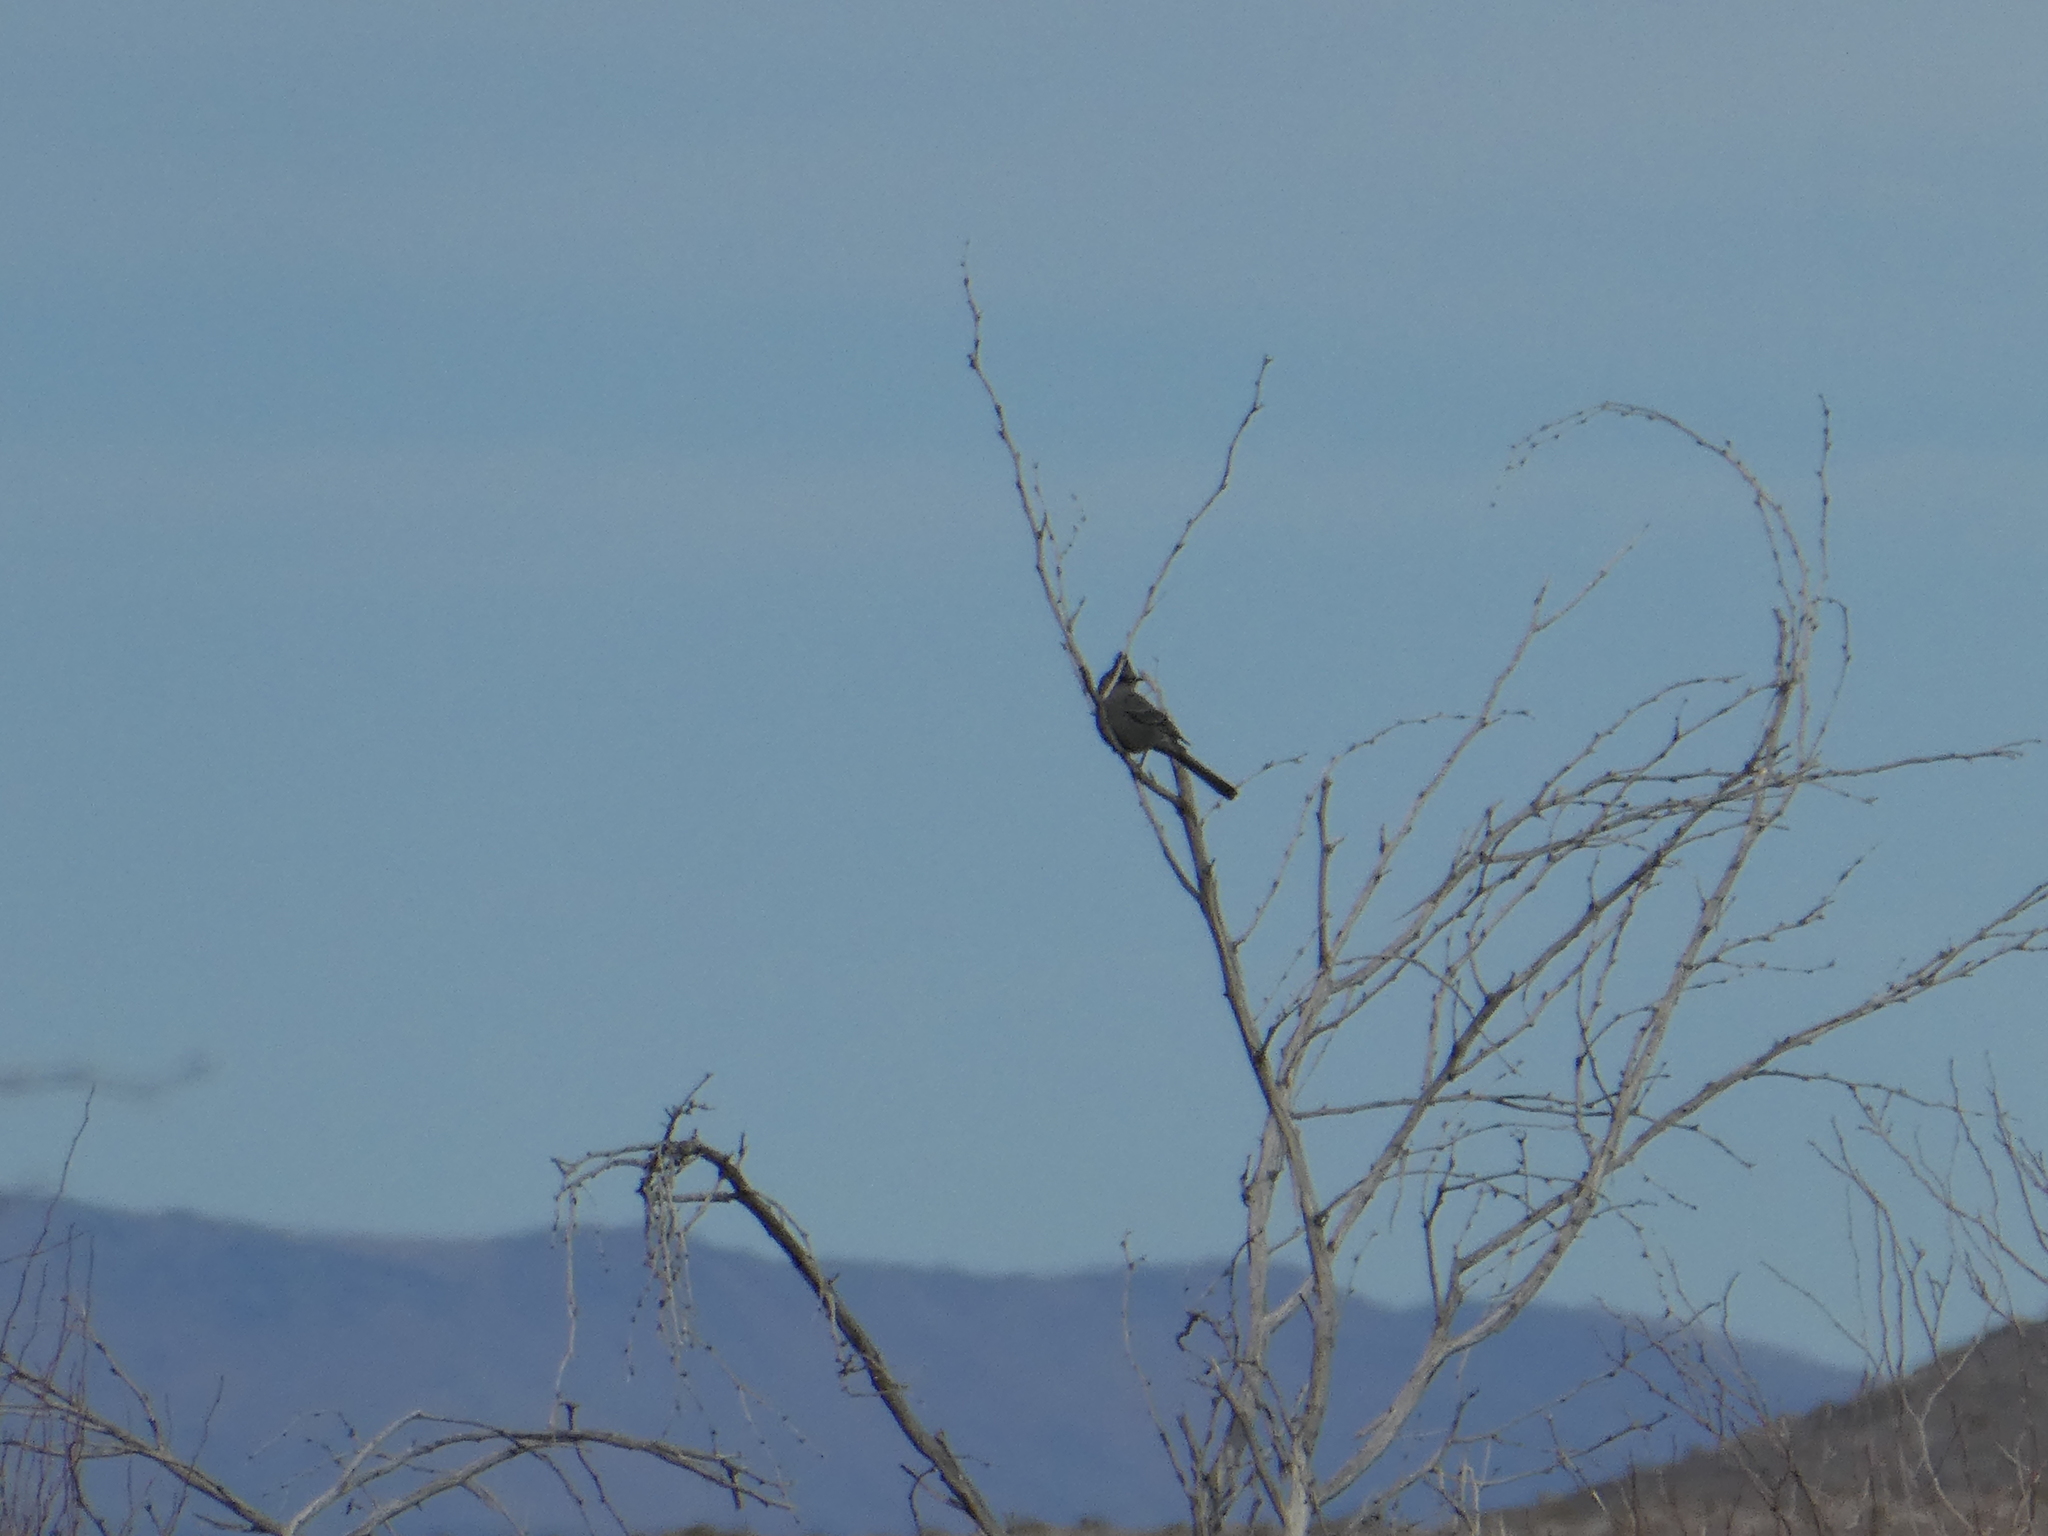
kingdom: Animalia
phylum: Chordata
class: Aves
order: Passeriformes
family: Ptilogonatidae
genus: Phainopepla
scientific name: Phainopepla nitens
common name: Phainopepla
